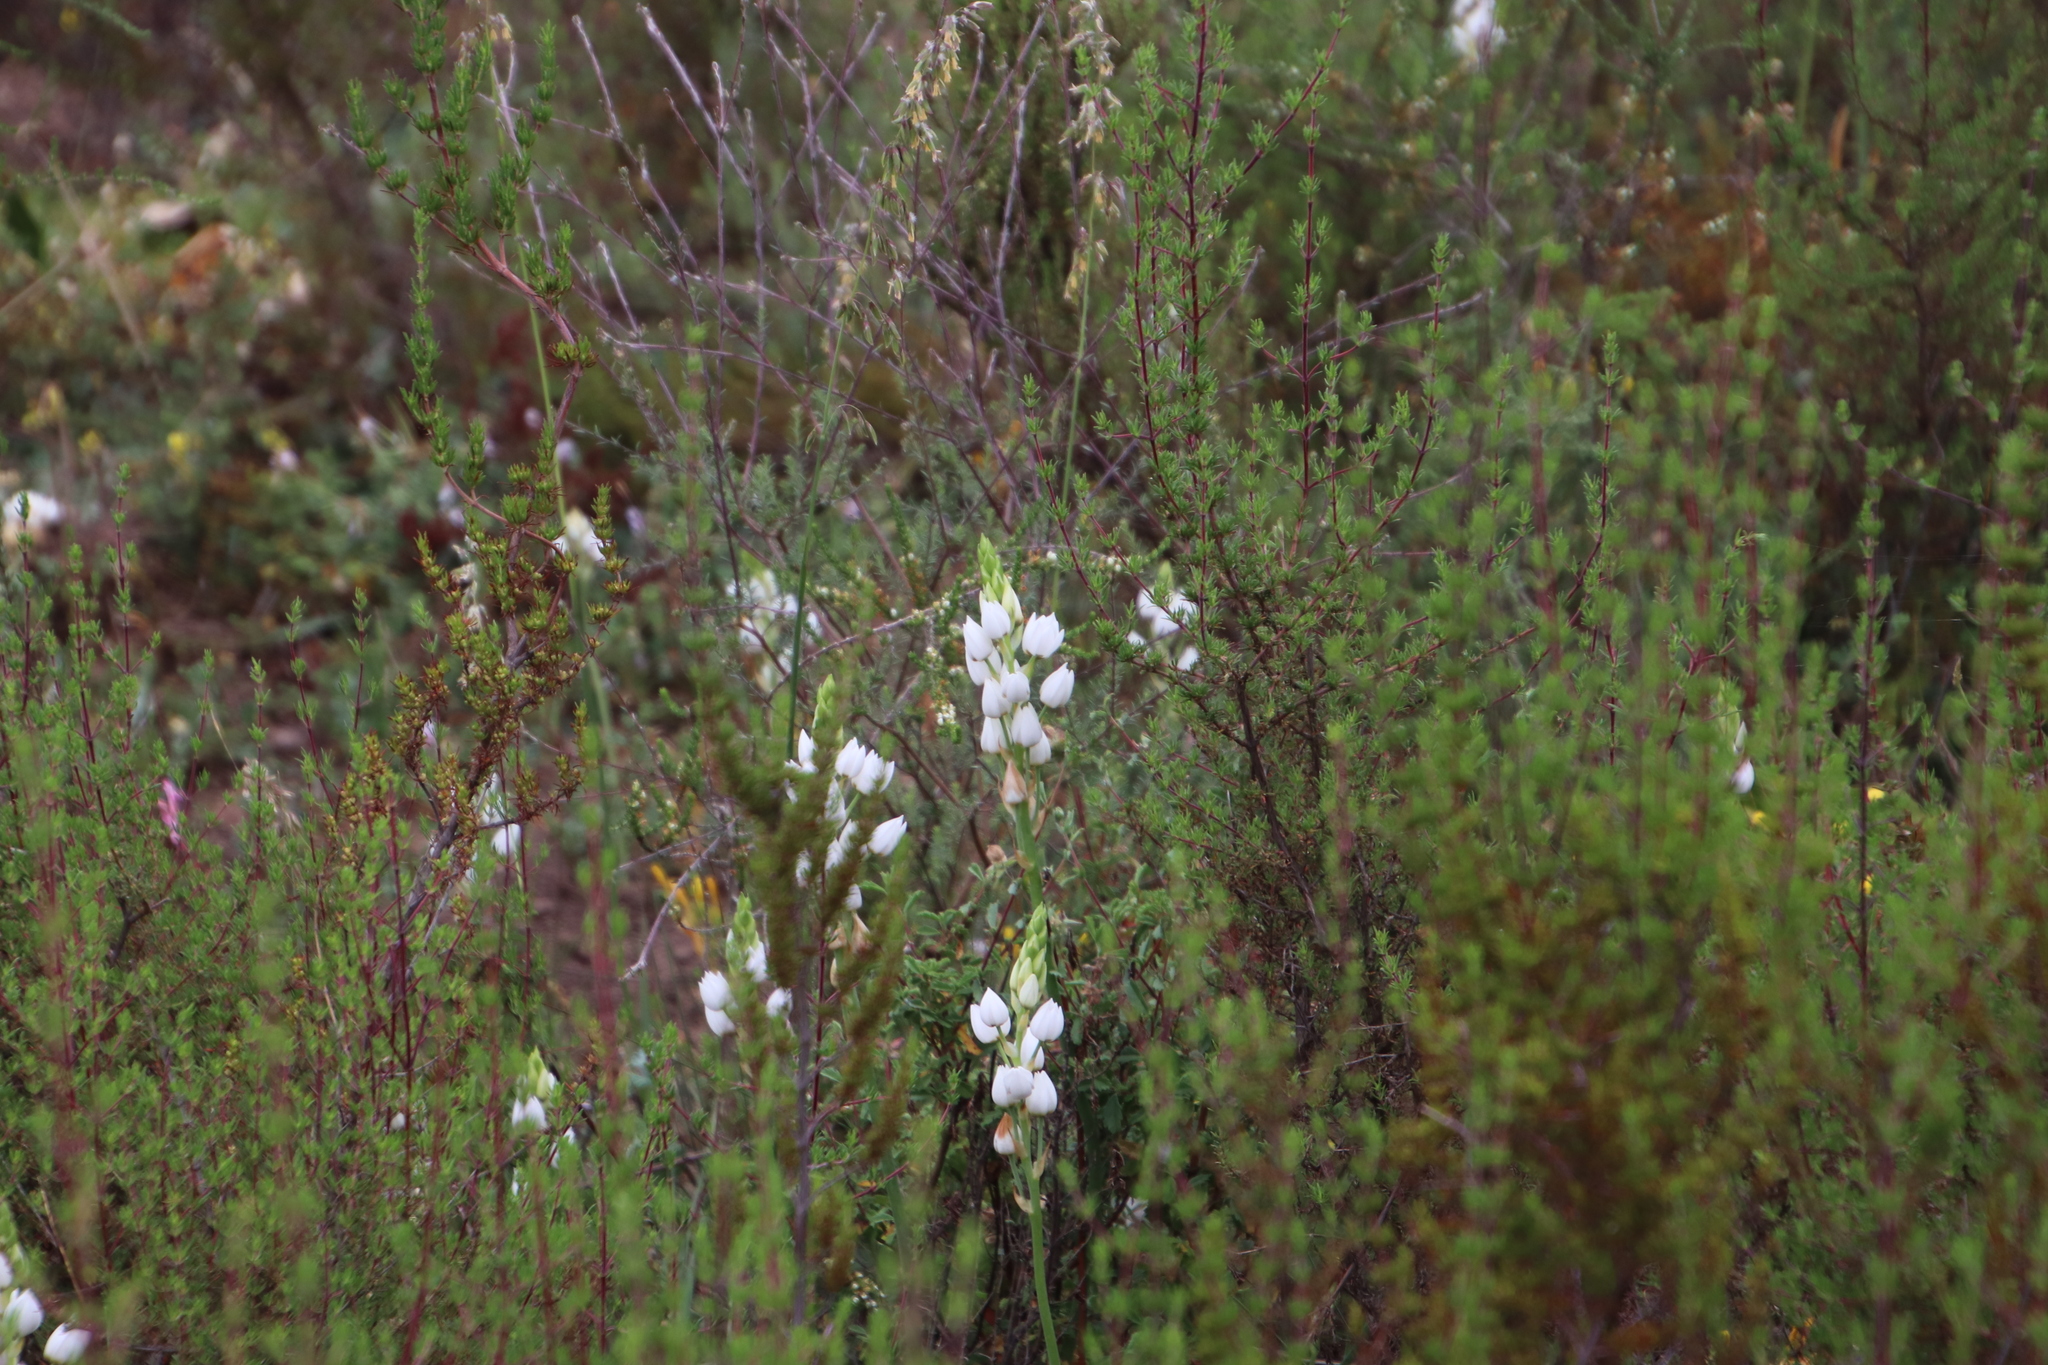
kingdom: Plantae
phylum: Tracheophyta
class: Liliopsida
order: Asparagales
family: Asparagaceae
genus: Ornithogalum
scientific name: Ornithogalum thyrsoides
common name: Chincherinchee
